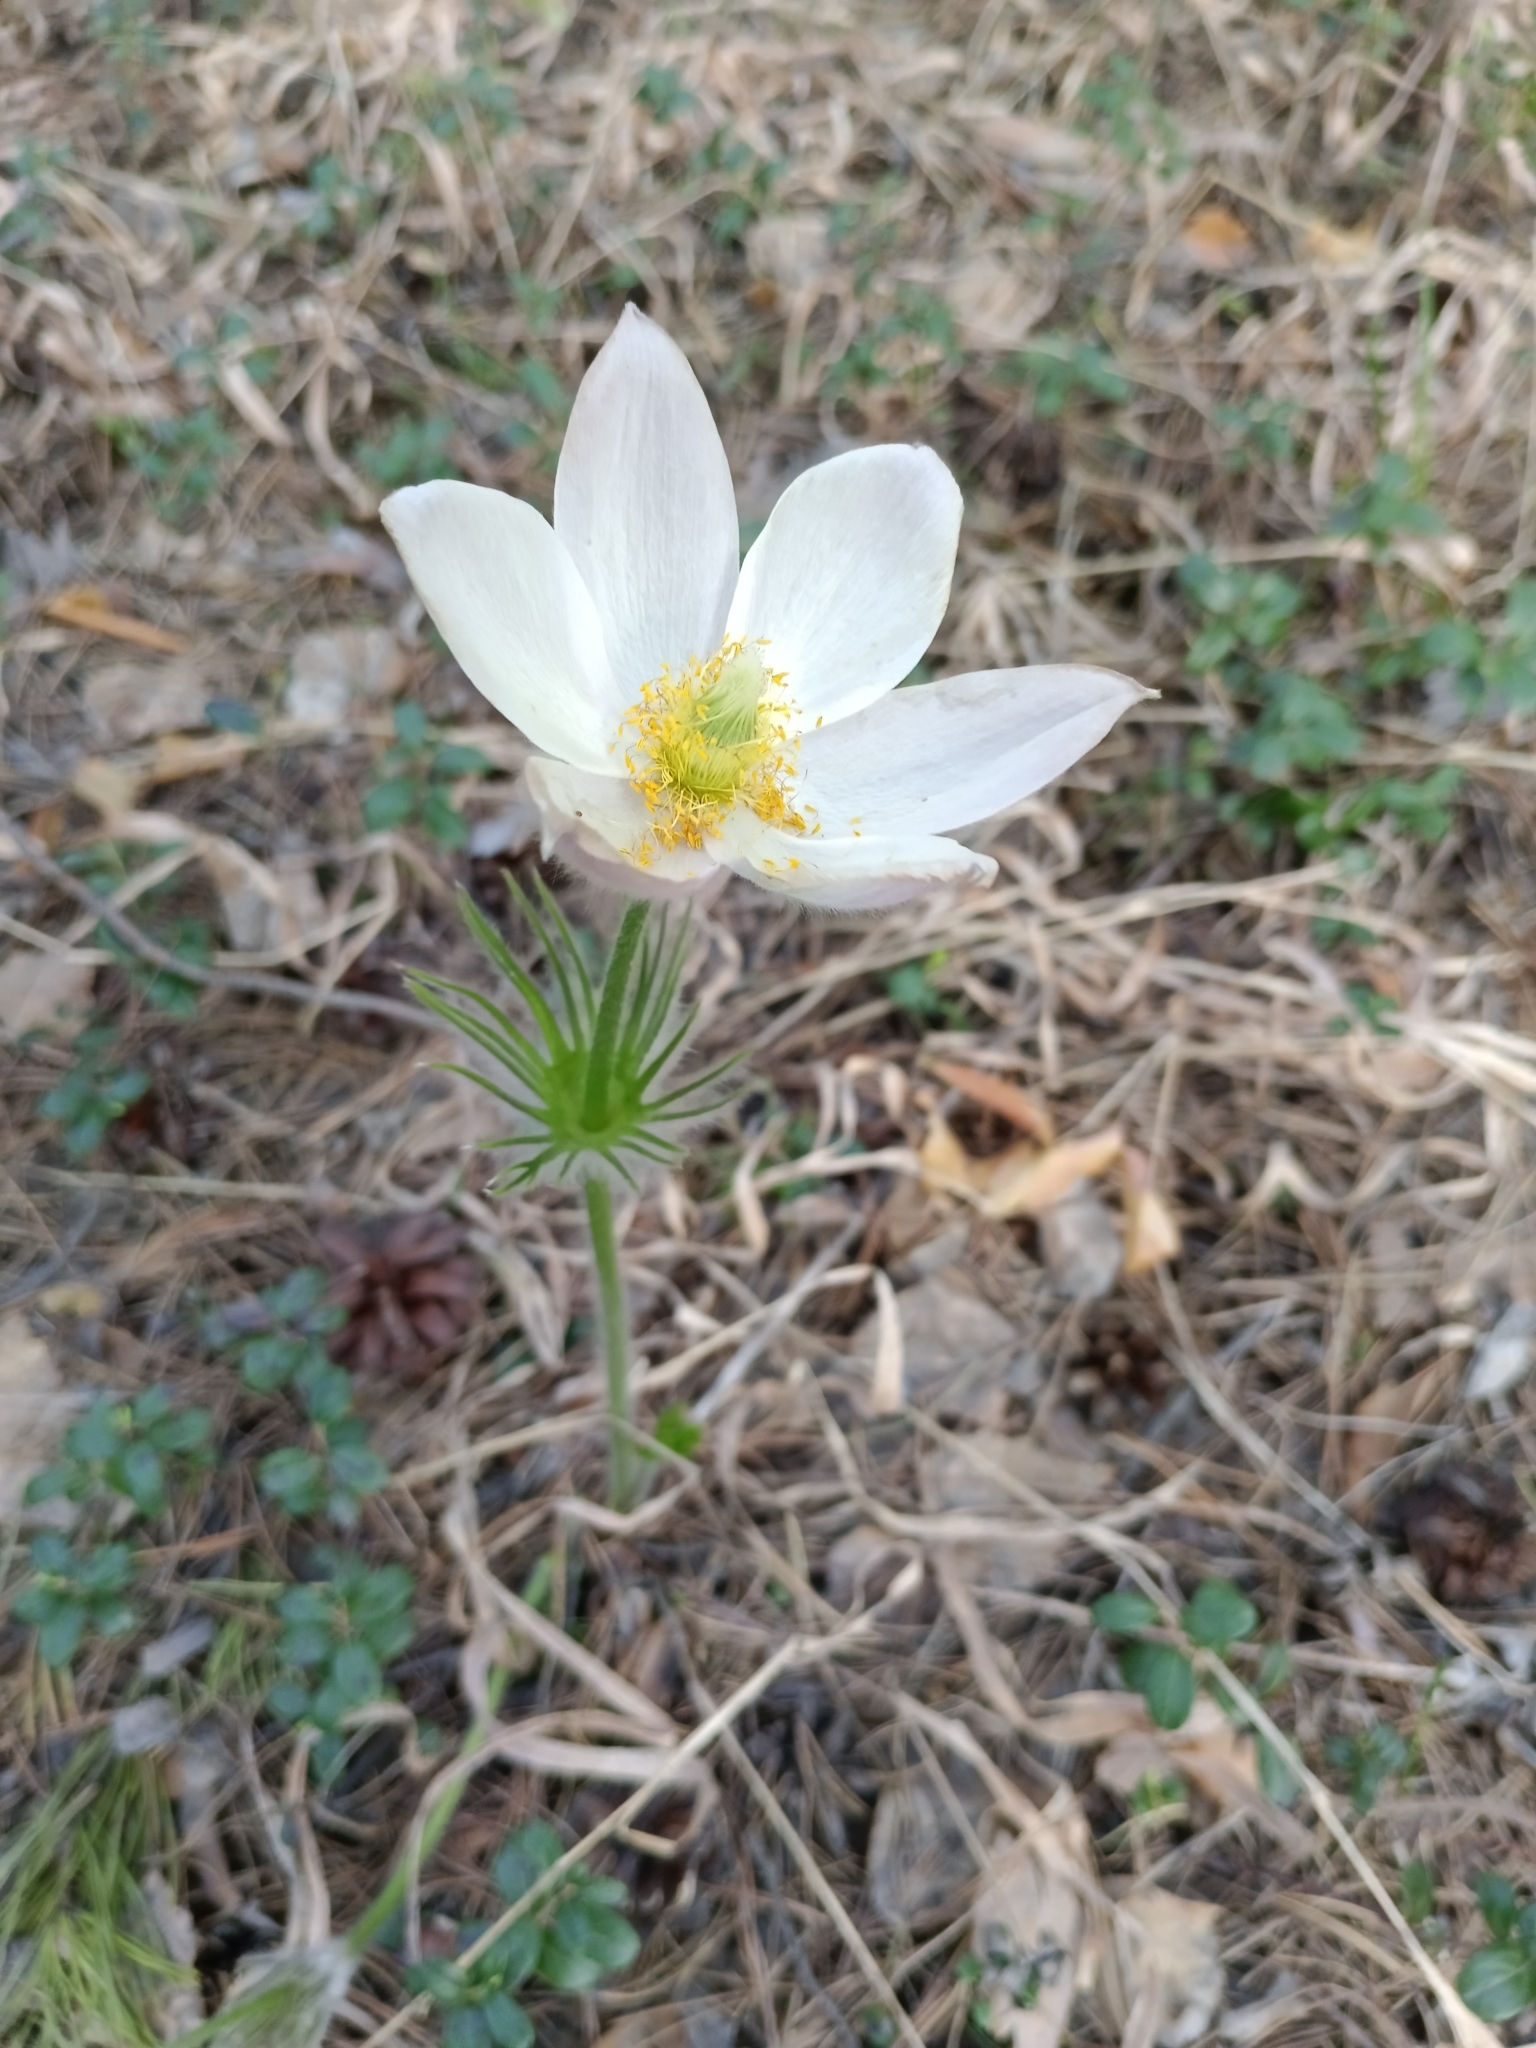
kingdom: Plantae
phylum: Tracheophyta
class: Magnoliopsida
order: Ranunculales
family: Ranunculaceae
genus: Pulsatilla
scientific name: Pulsatilla patens
